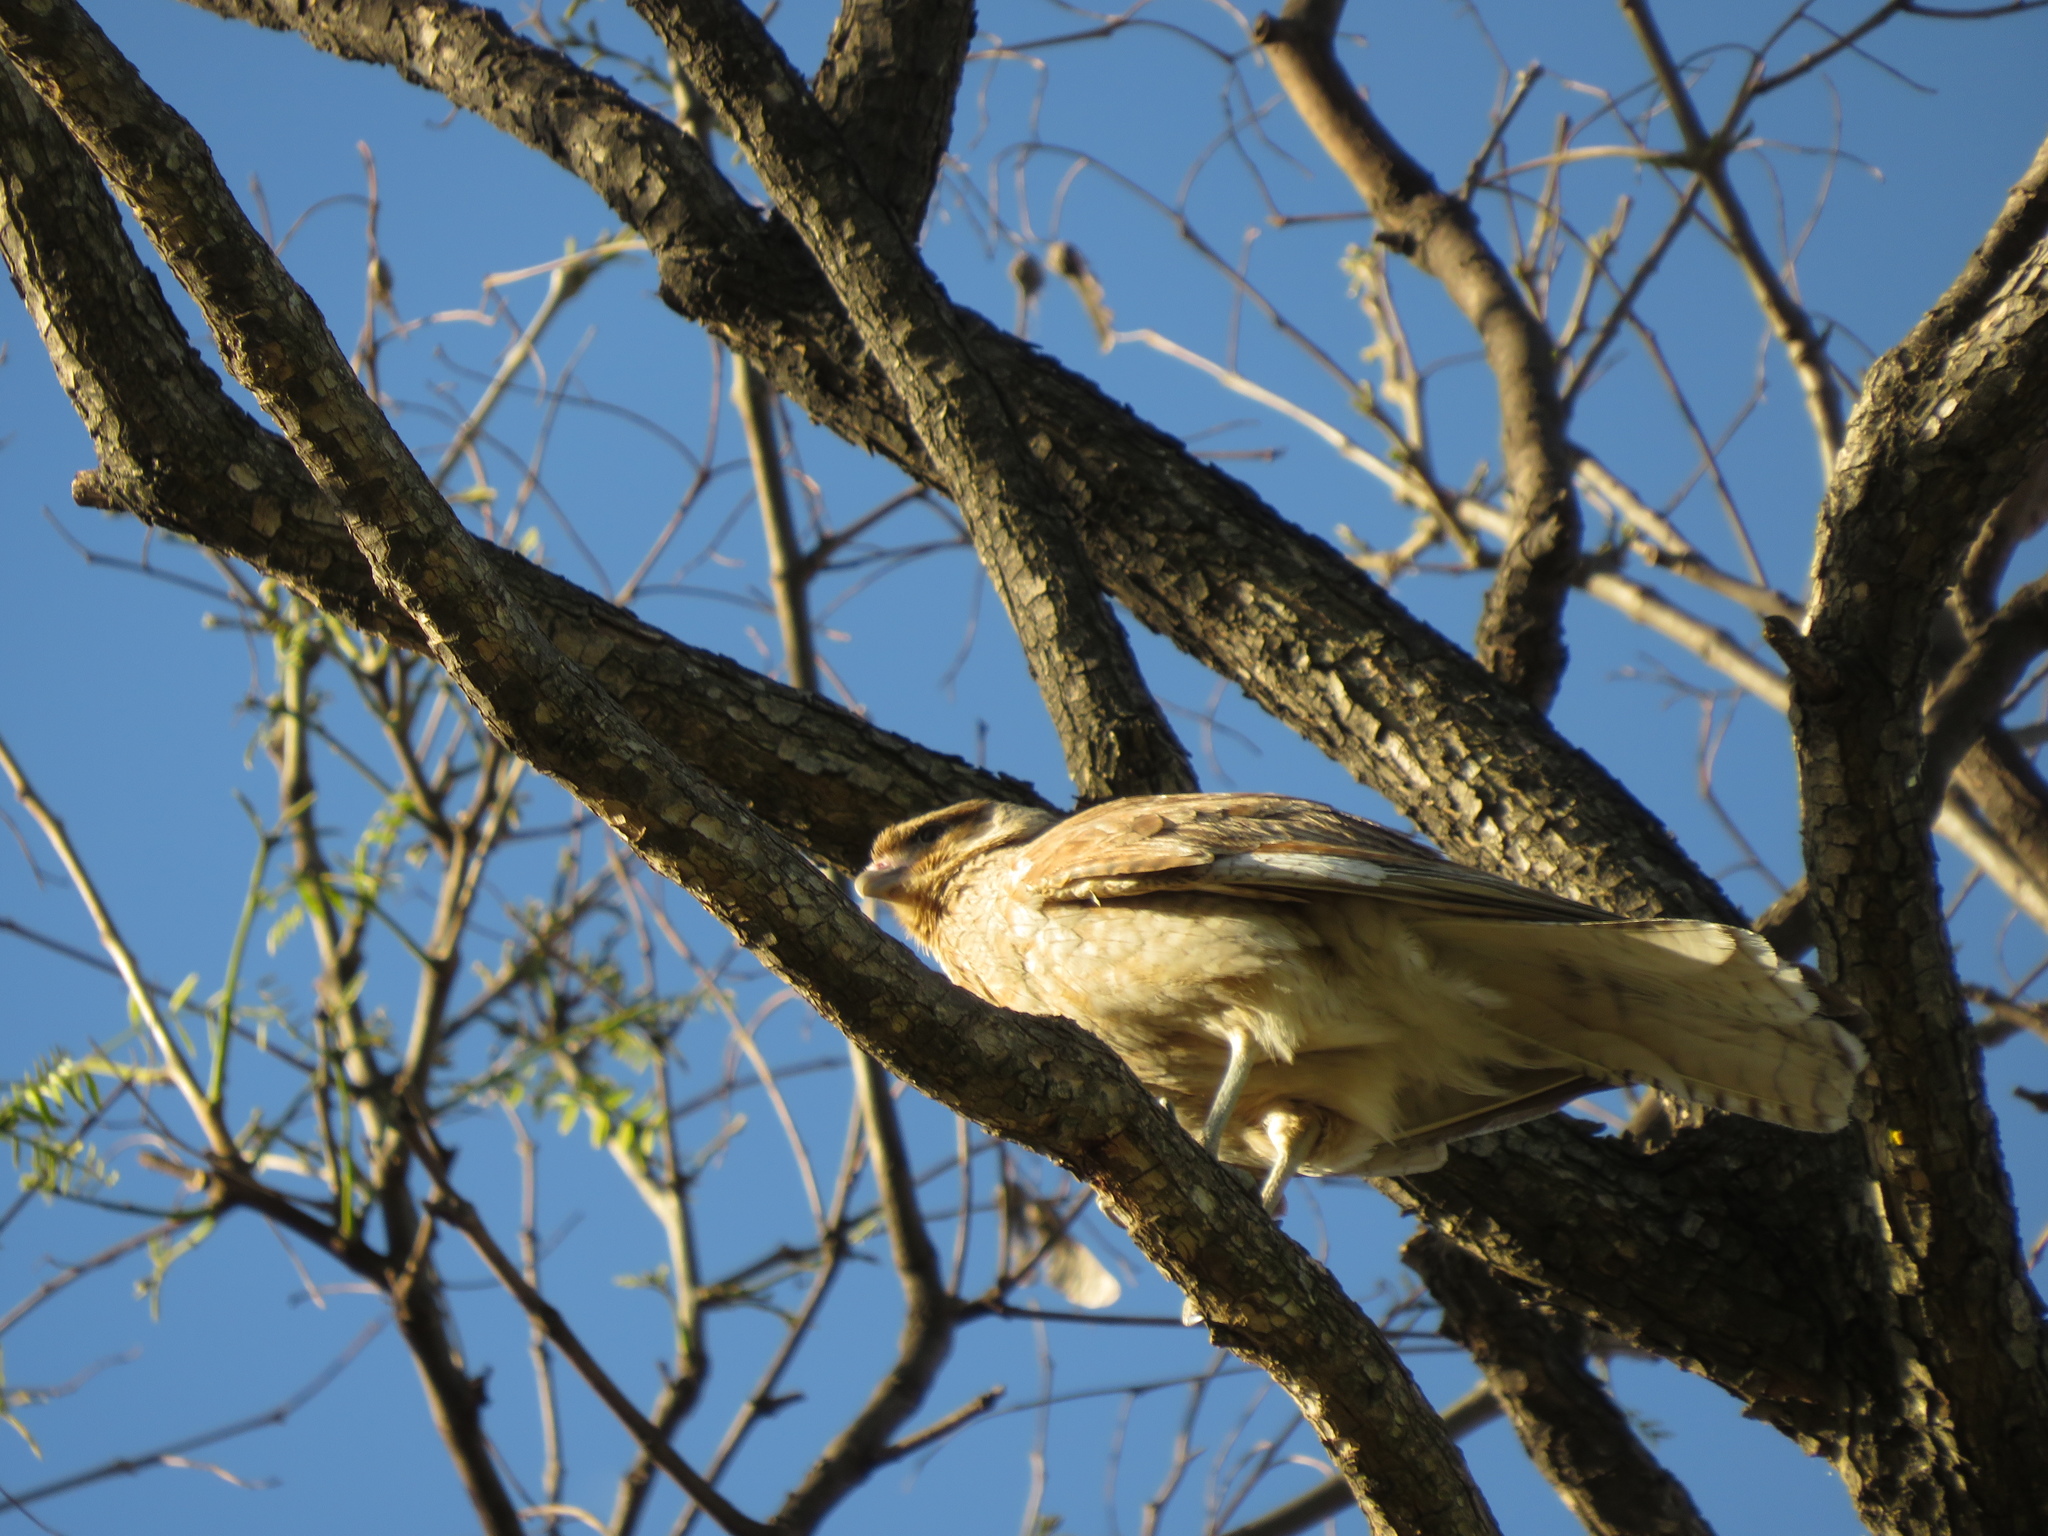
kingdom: Animalia
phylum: Chordata
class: Aves
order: Falconiformes
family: Falconidae
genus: Daptrius
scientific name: Daptrius
